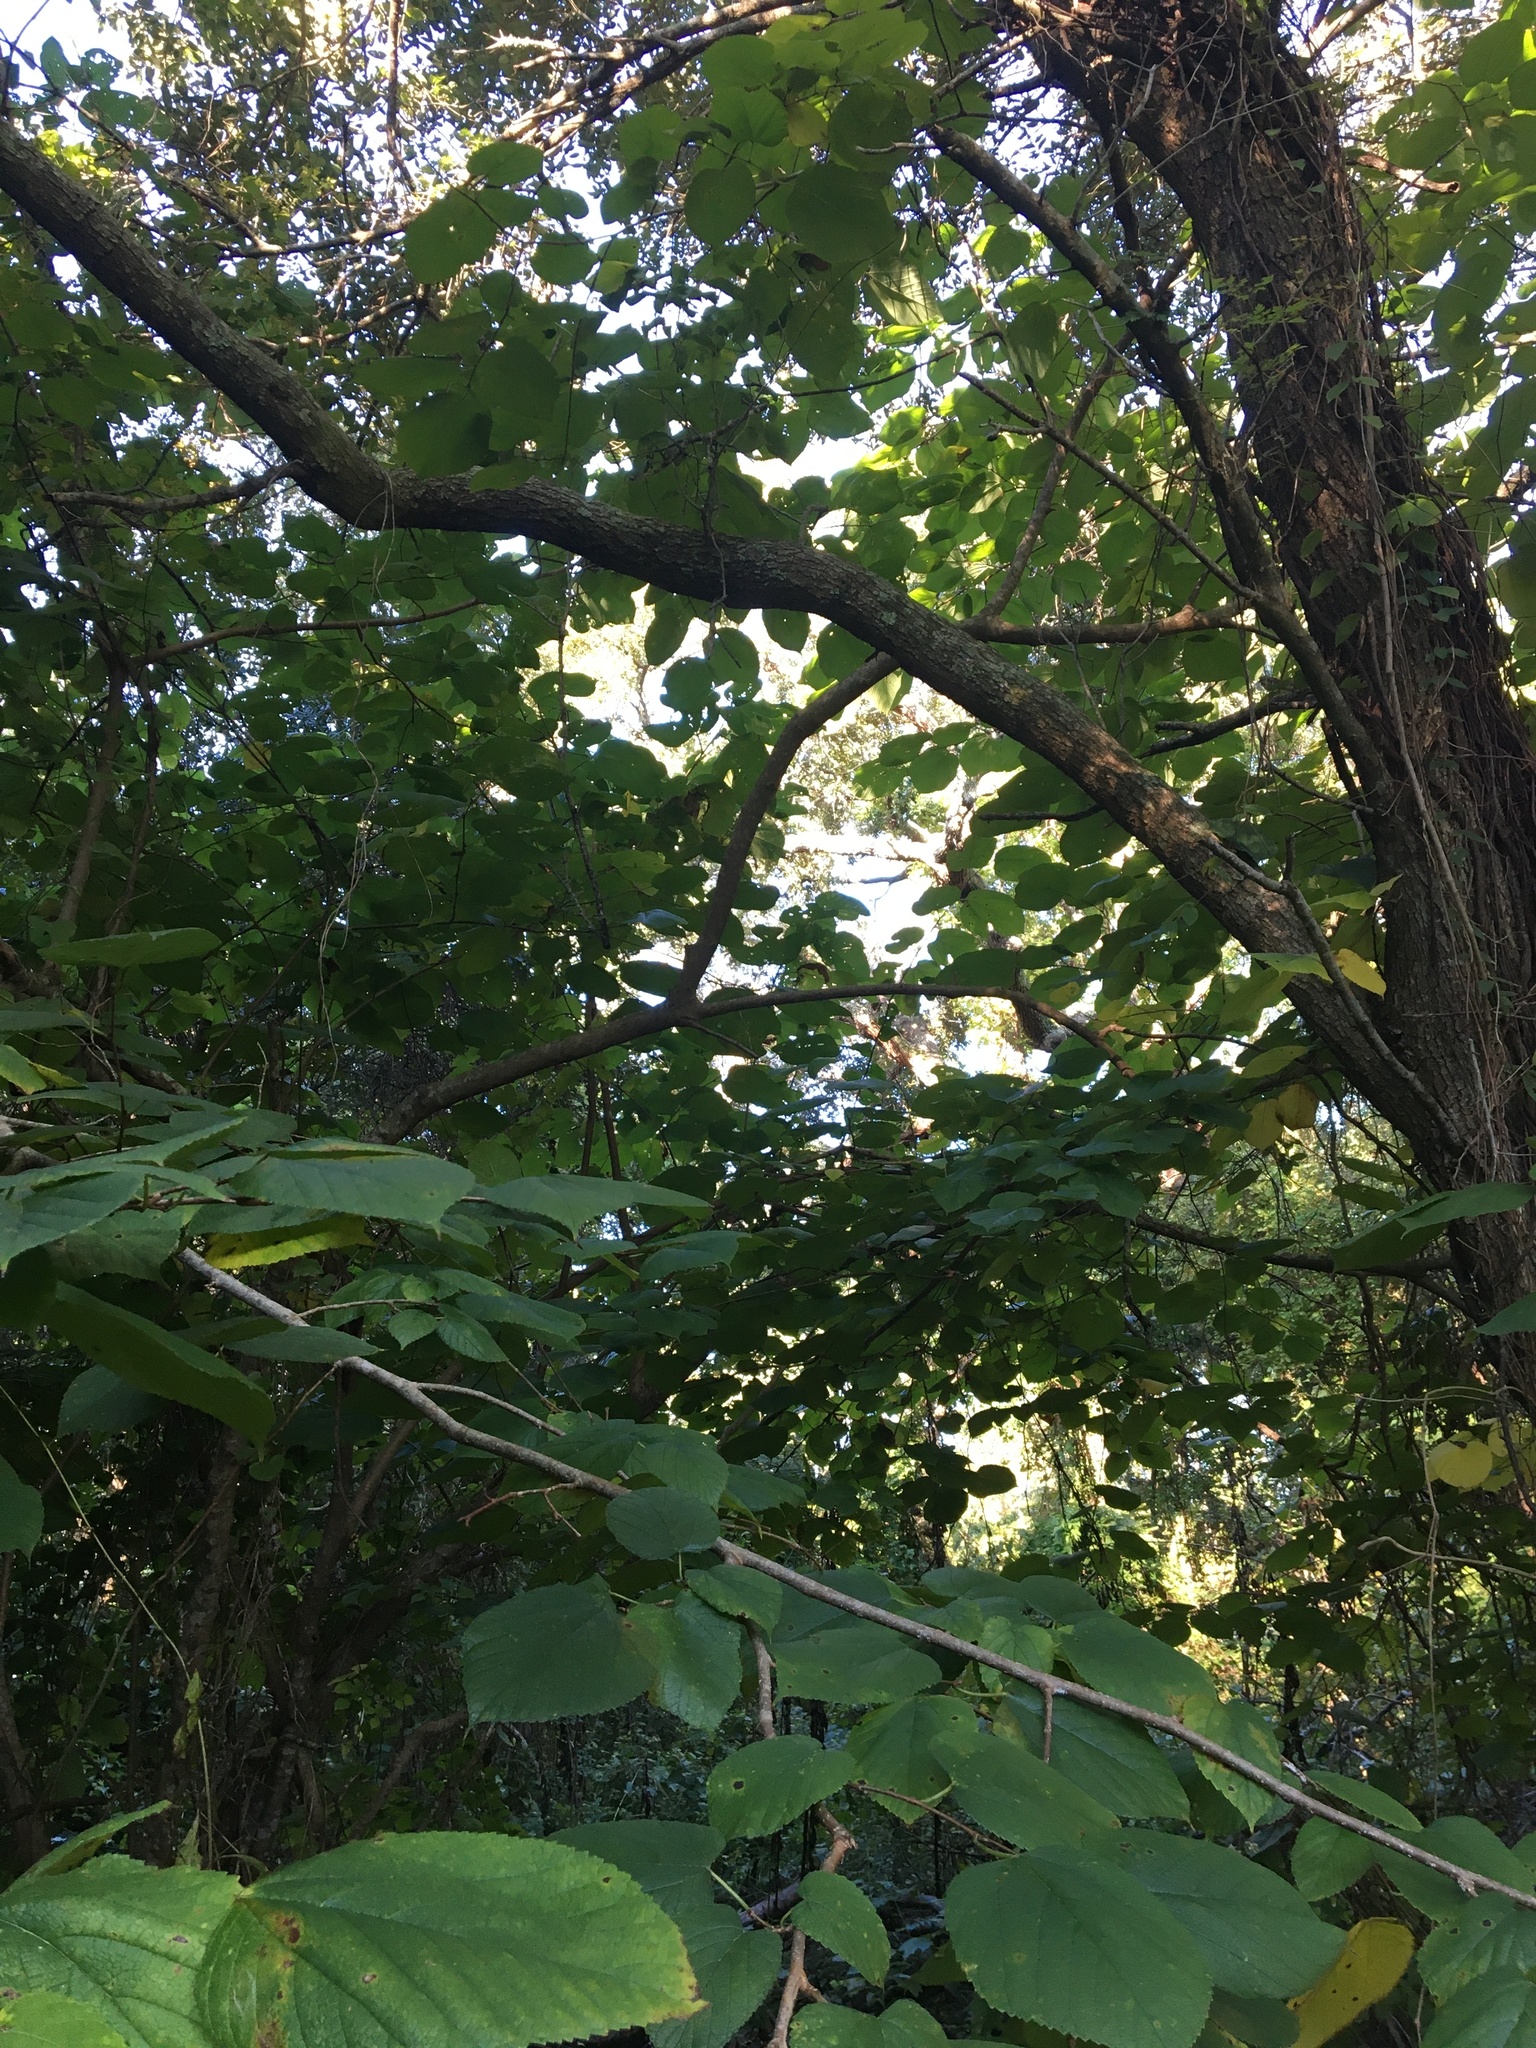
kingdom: Plantae
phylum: Tracheophyta
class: Magnoliopsida
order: Rosales
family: Moraceae
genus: Morus
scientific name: Morus rubra
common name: Red mulberry
